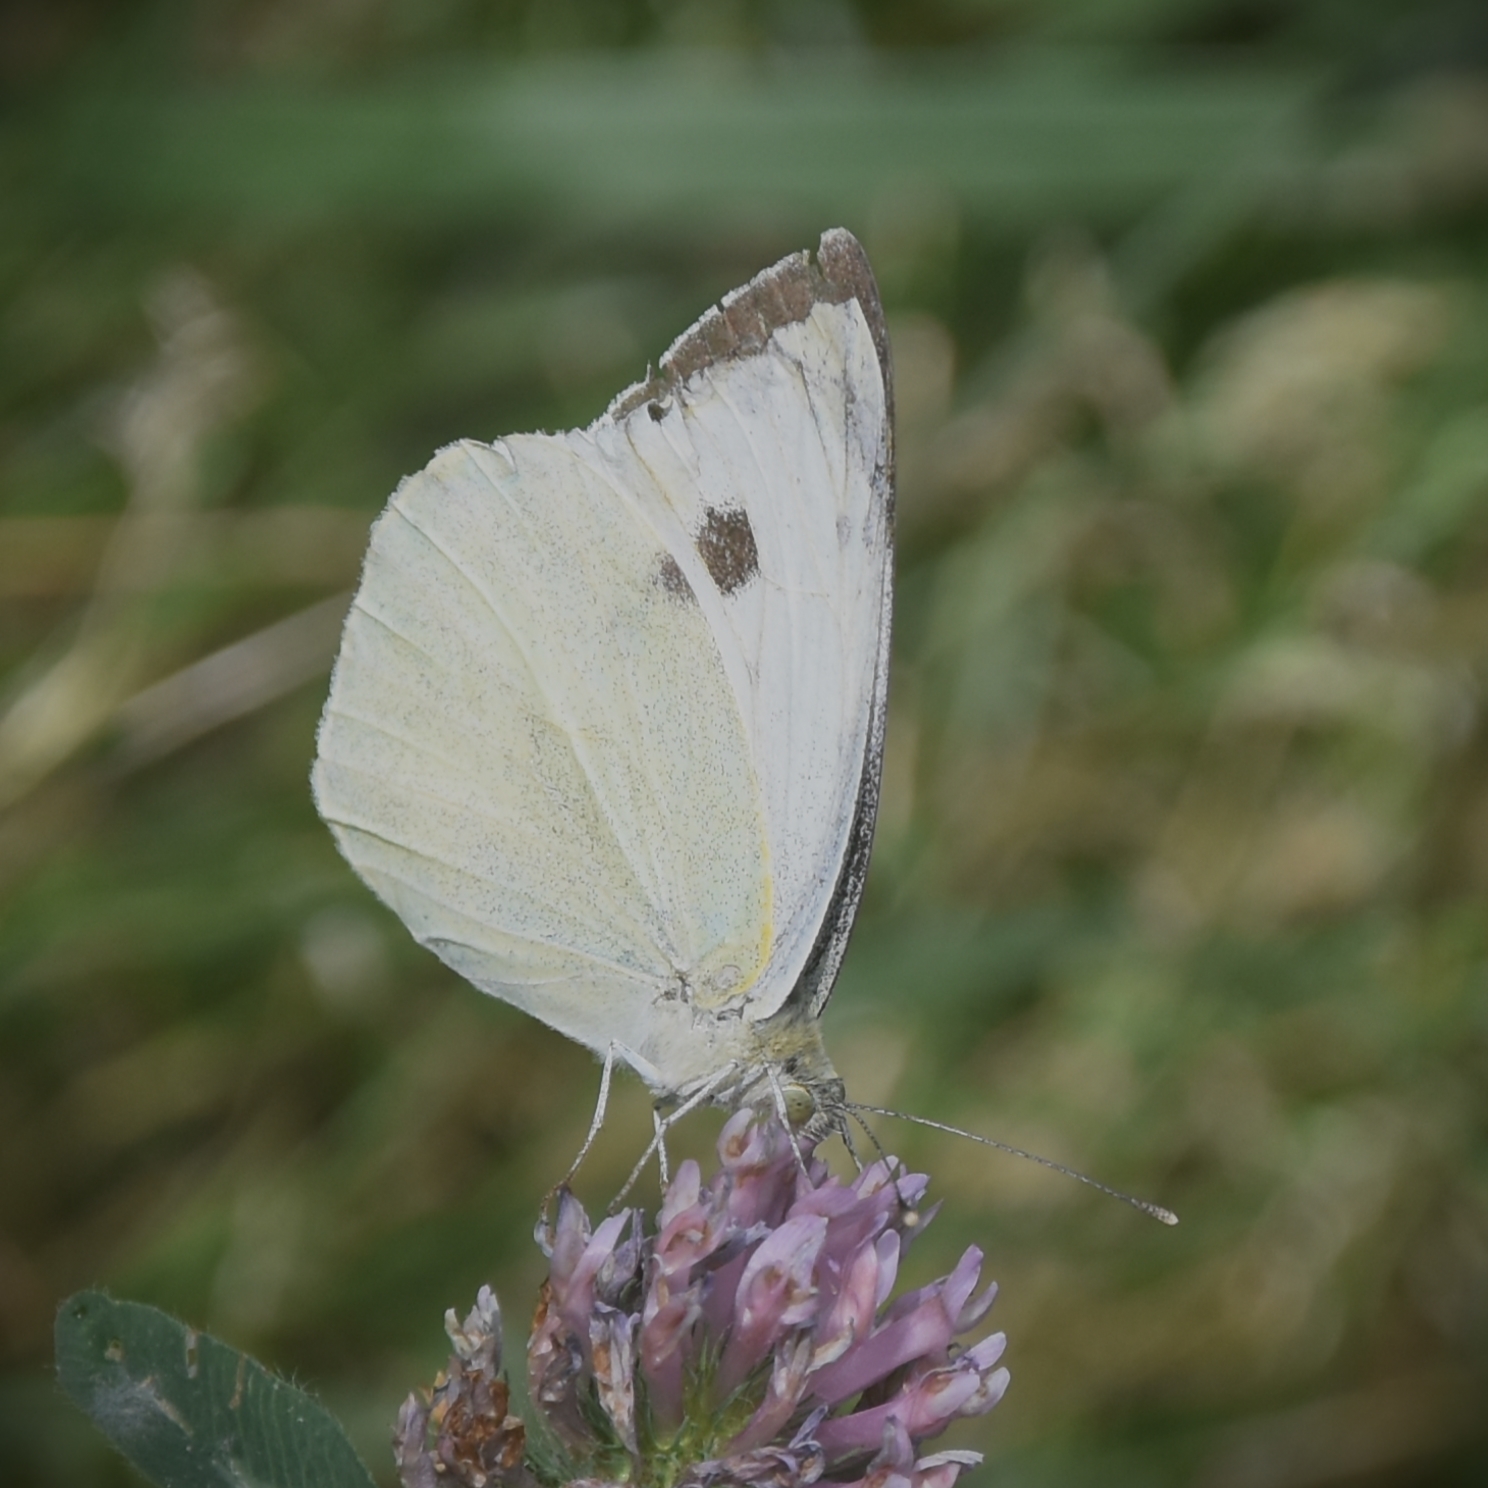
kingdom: Animalia
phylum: Arthropoda
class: Insecta
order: Lepidoptera
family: Pieridae
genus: Pieris
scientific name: Pieris brassicae
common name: Large white
